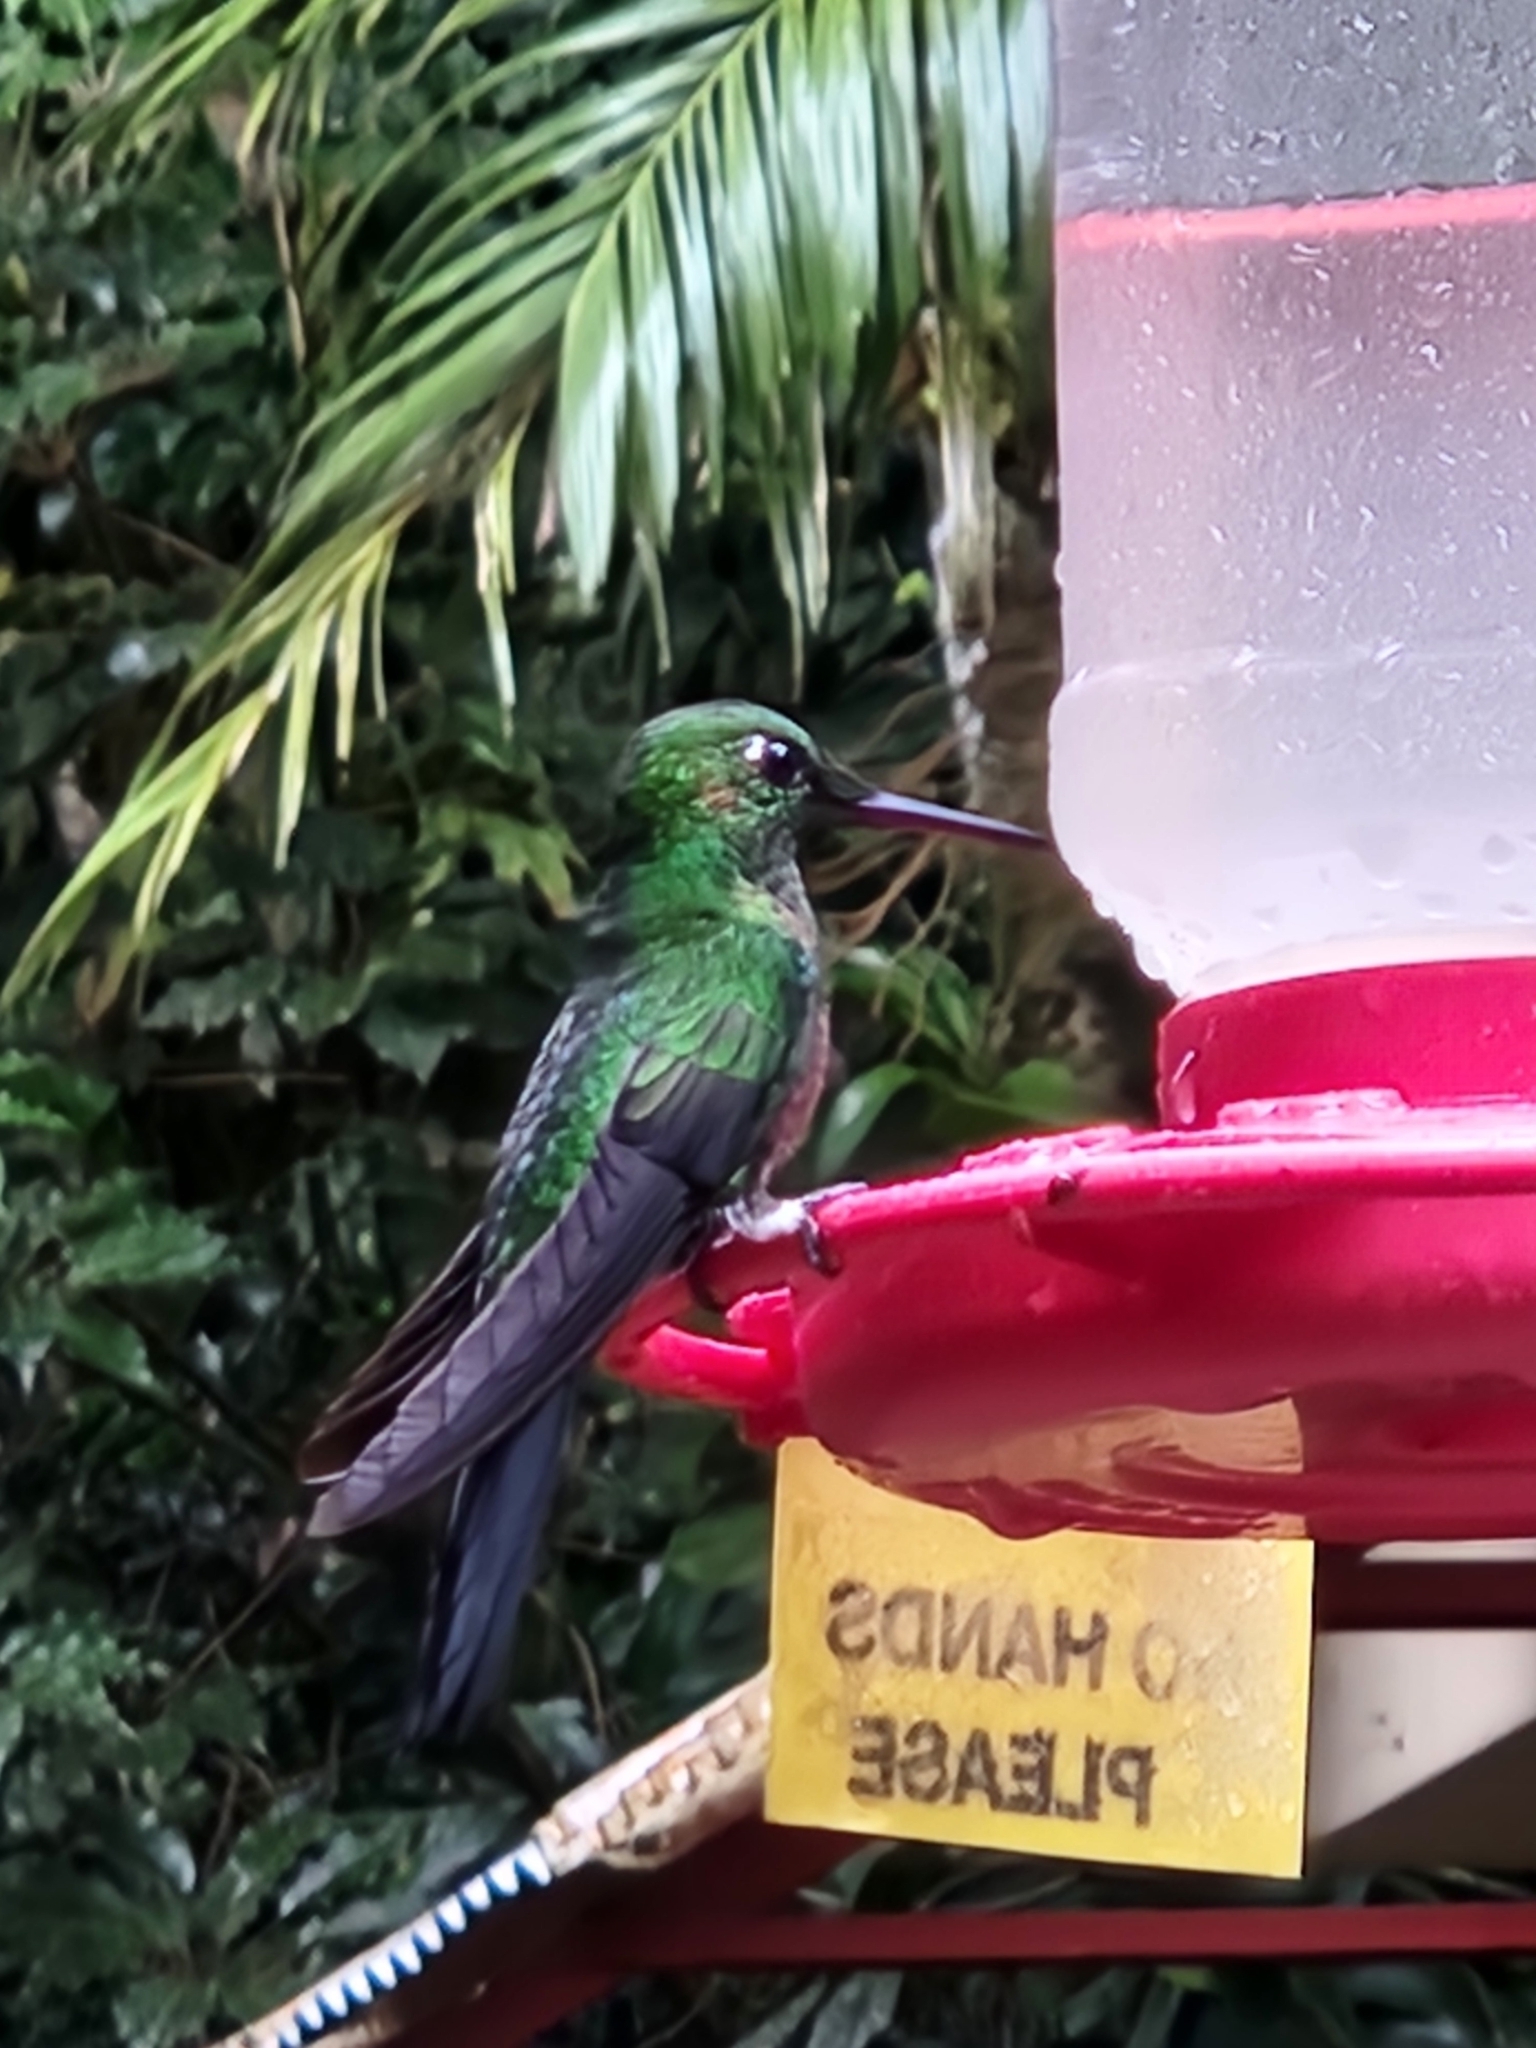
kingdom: Animalia
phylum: Chordata
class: Aves
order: Apodiformes
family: Trochilidae
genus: Heliodoxa
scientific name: Heliodoxa jacula
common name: Green-crowned brilliant
